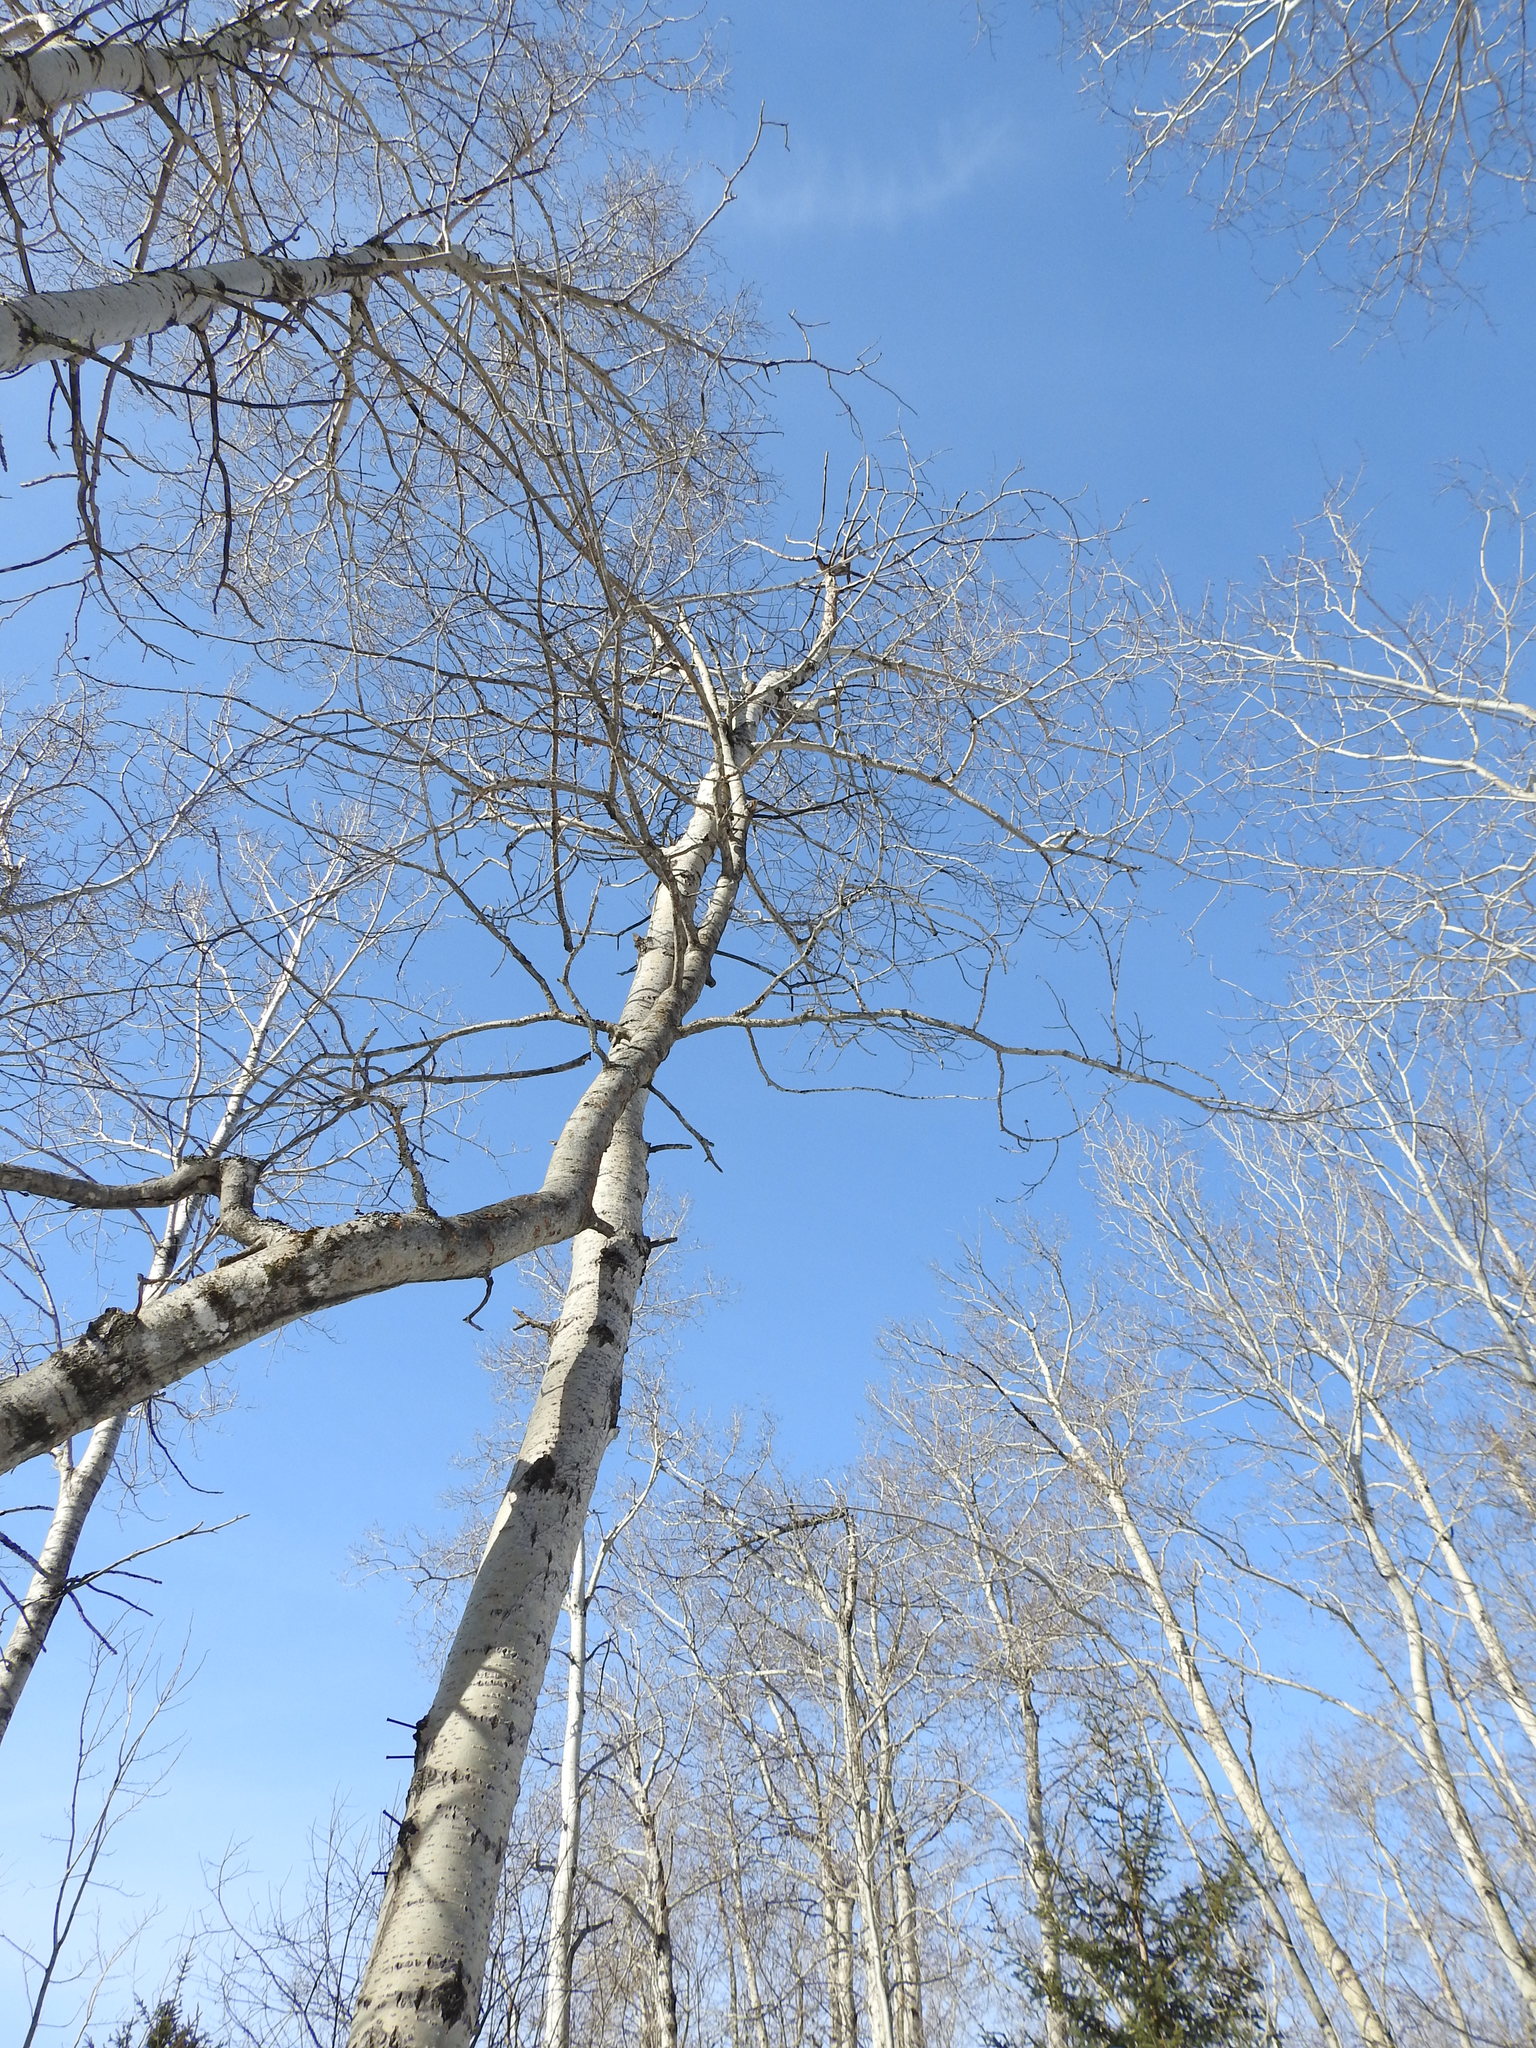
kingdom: Plantae
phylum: Tracheophyta
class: Magnoliopsida
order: Malpighiales
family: Salicaceae
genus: Populus
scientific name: Populus tremuloides
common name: Quaking aspen
